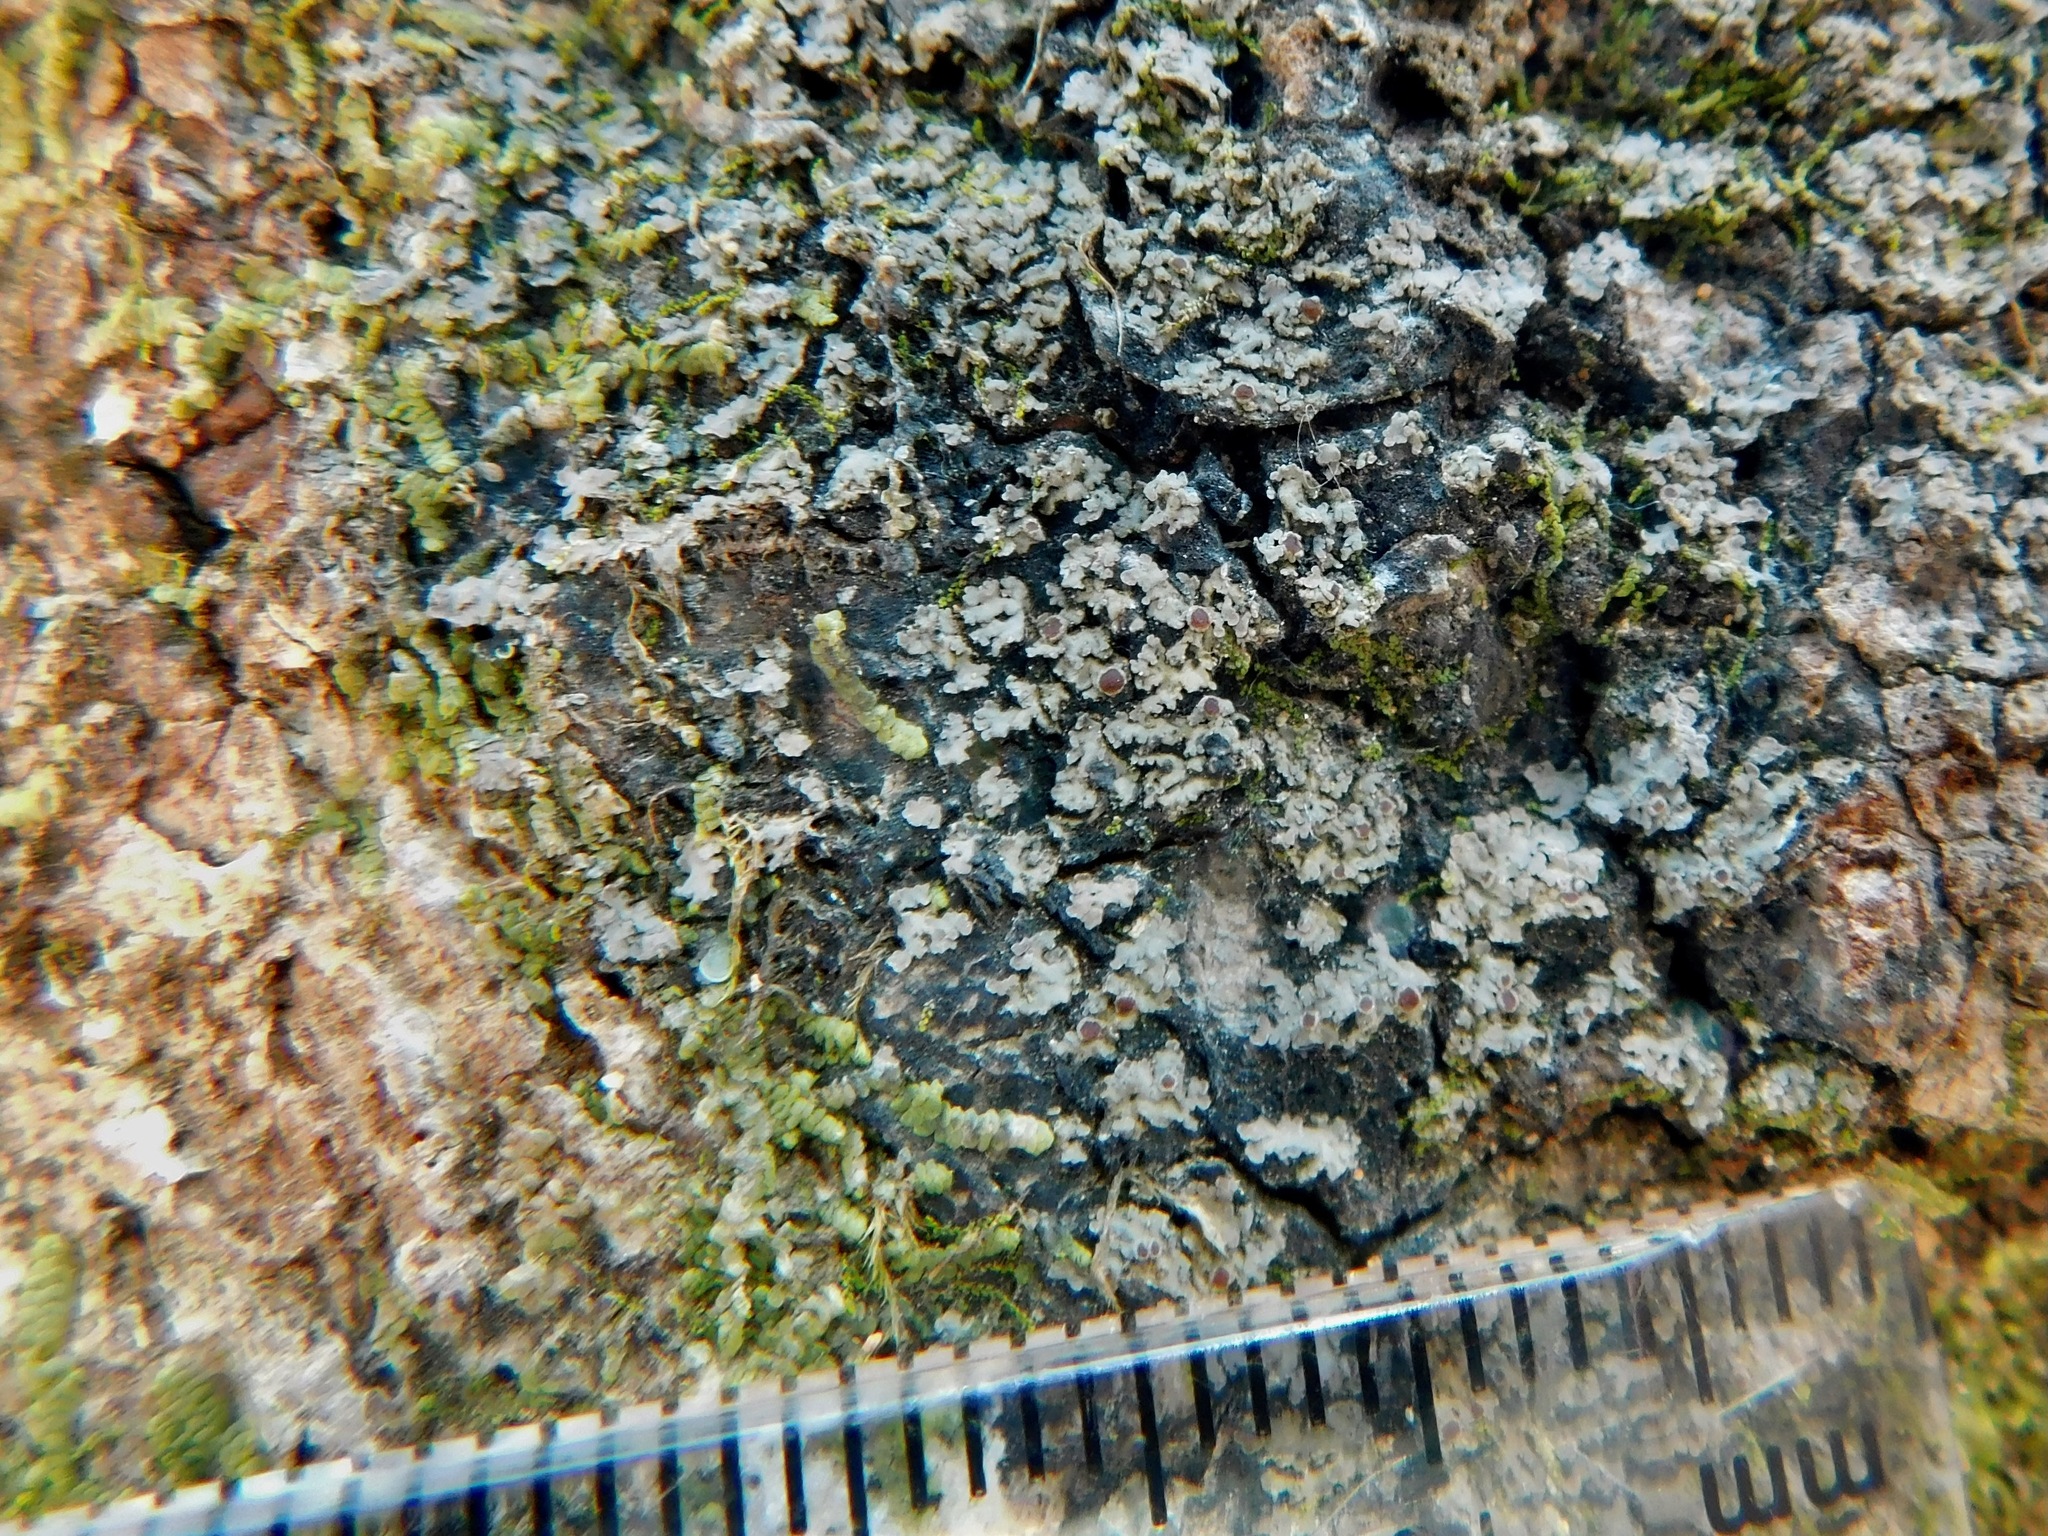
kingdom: Fungi
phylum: Ascomycota
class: Lecanoromycetes
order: Peltigerales
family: Pannariaceae
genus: Fuscopannaria
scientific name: Fuscopannaria leucosticta
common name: Rimmed shingle lichen
